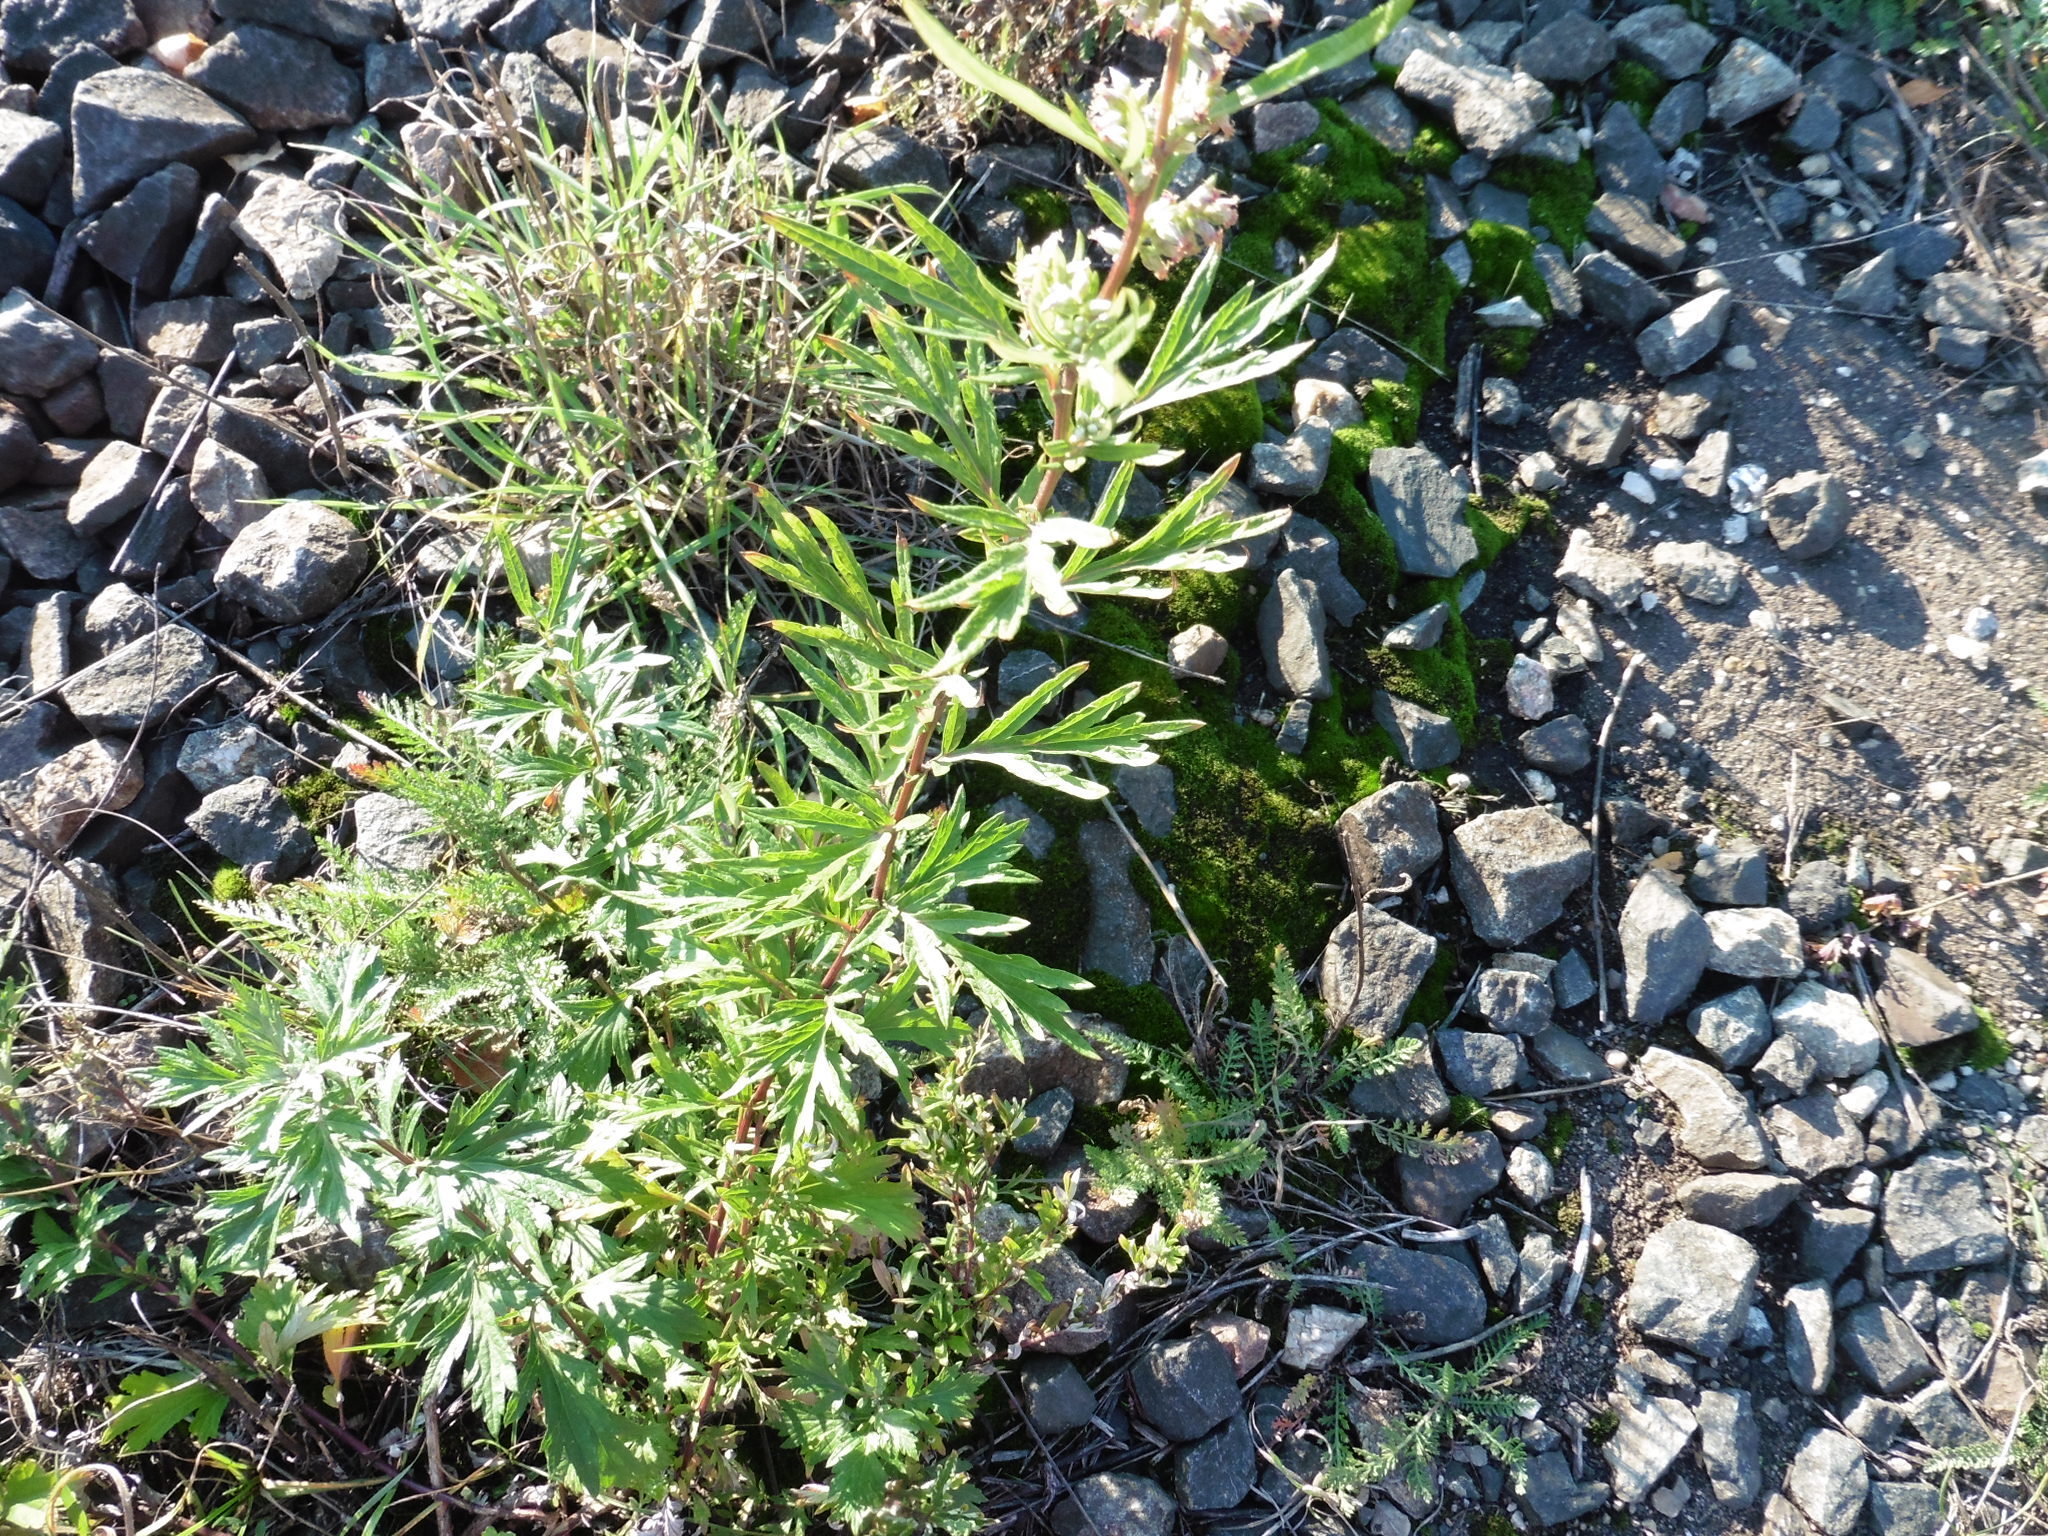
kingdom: Plantae
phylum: Tracheophyta
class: Magnoliopsida
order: Asterales
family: Asteraceae
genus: Artemisia
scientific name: Artemisia vulgaris
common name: Mugwort
